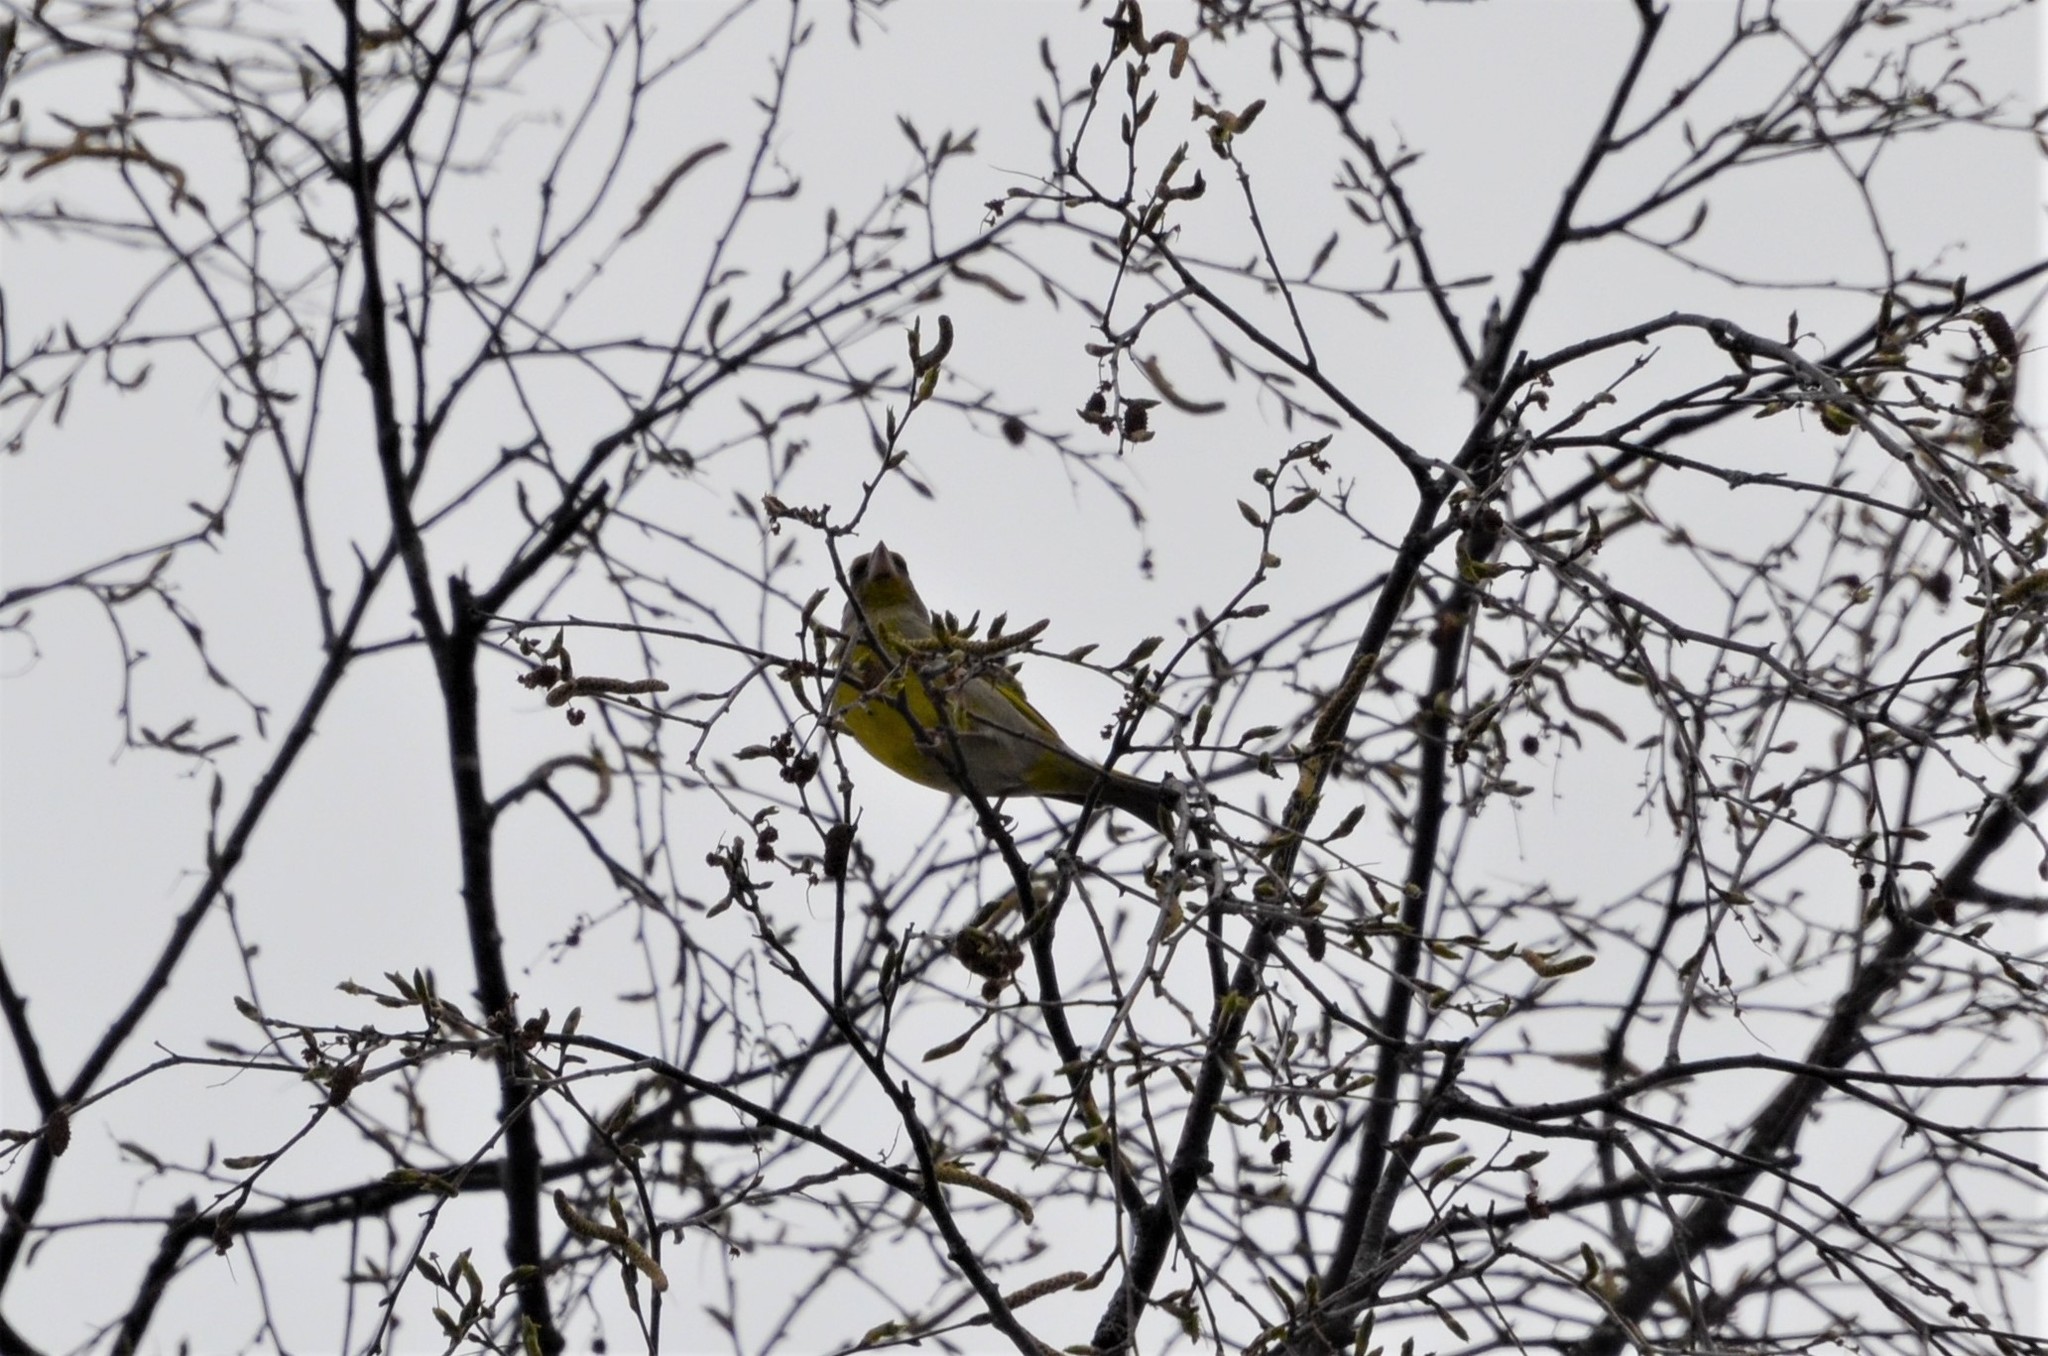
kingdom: Plantae
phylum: Tracheophyta
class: Liliopsida
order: Poales
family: Poaceae
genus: Chloris
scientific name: Chloris chloris
